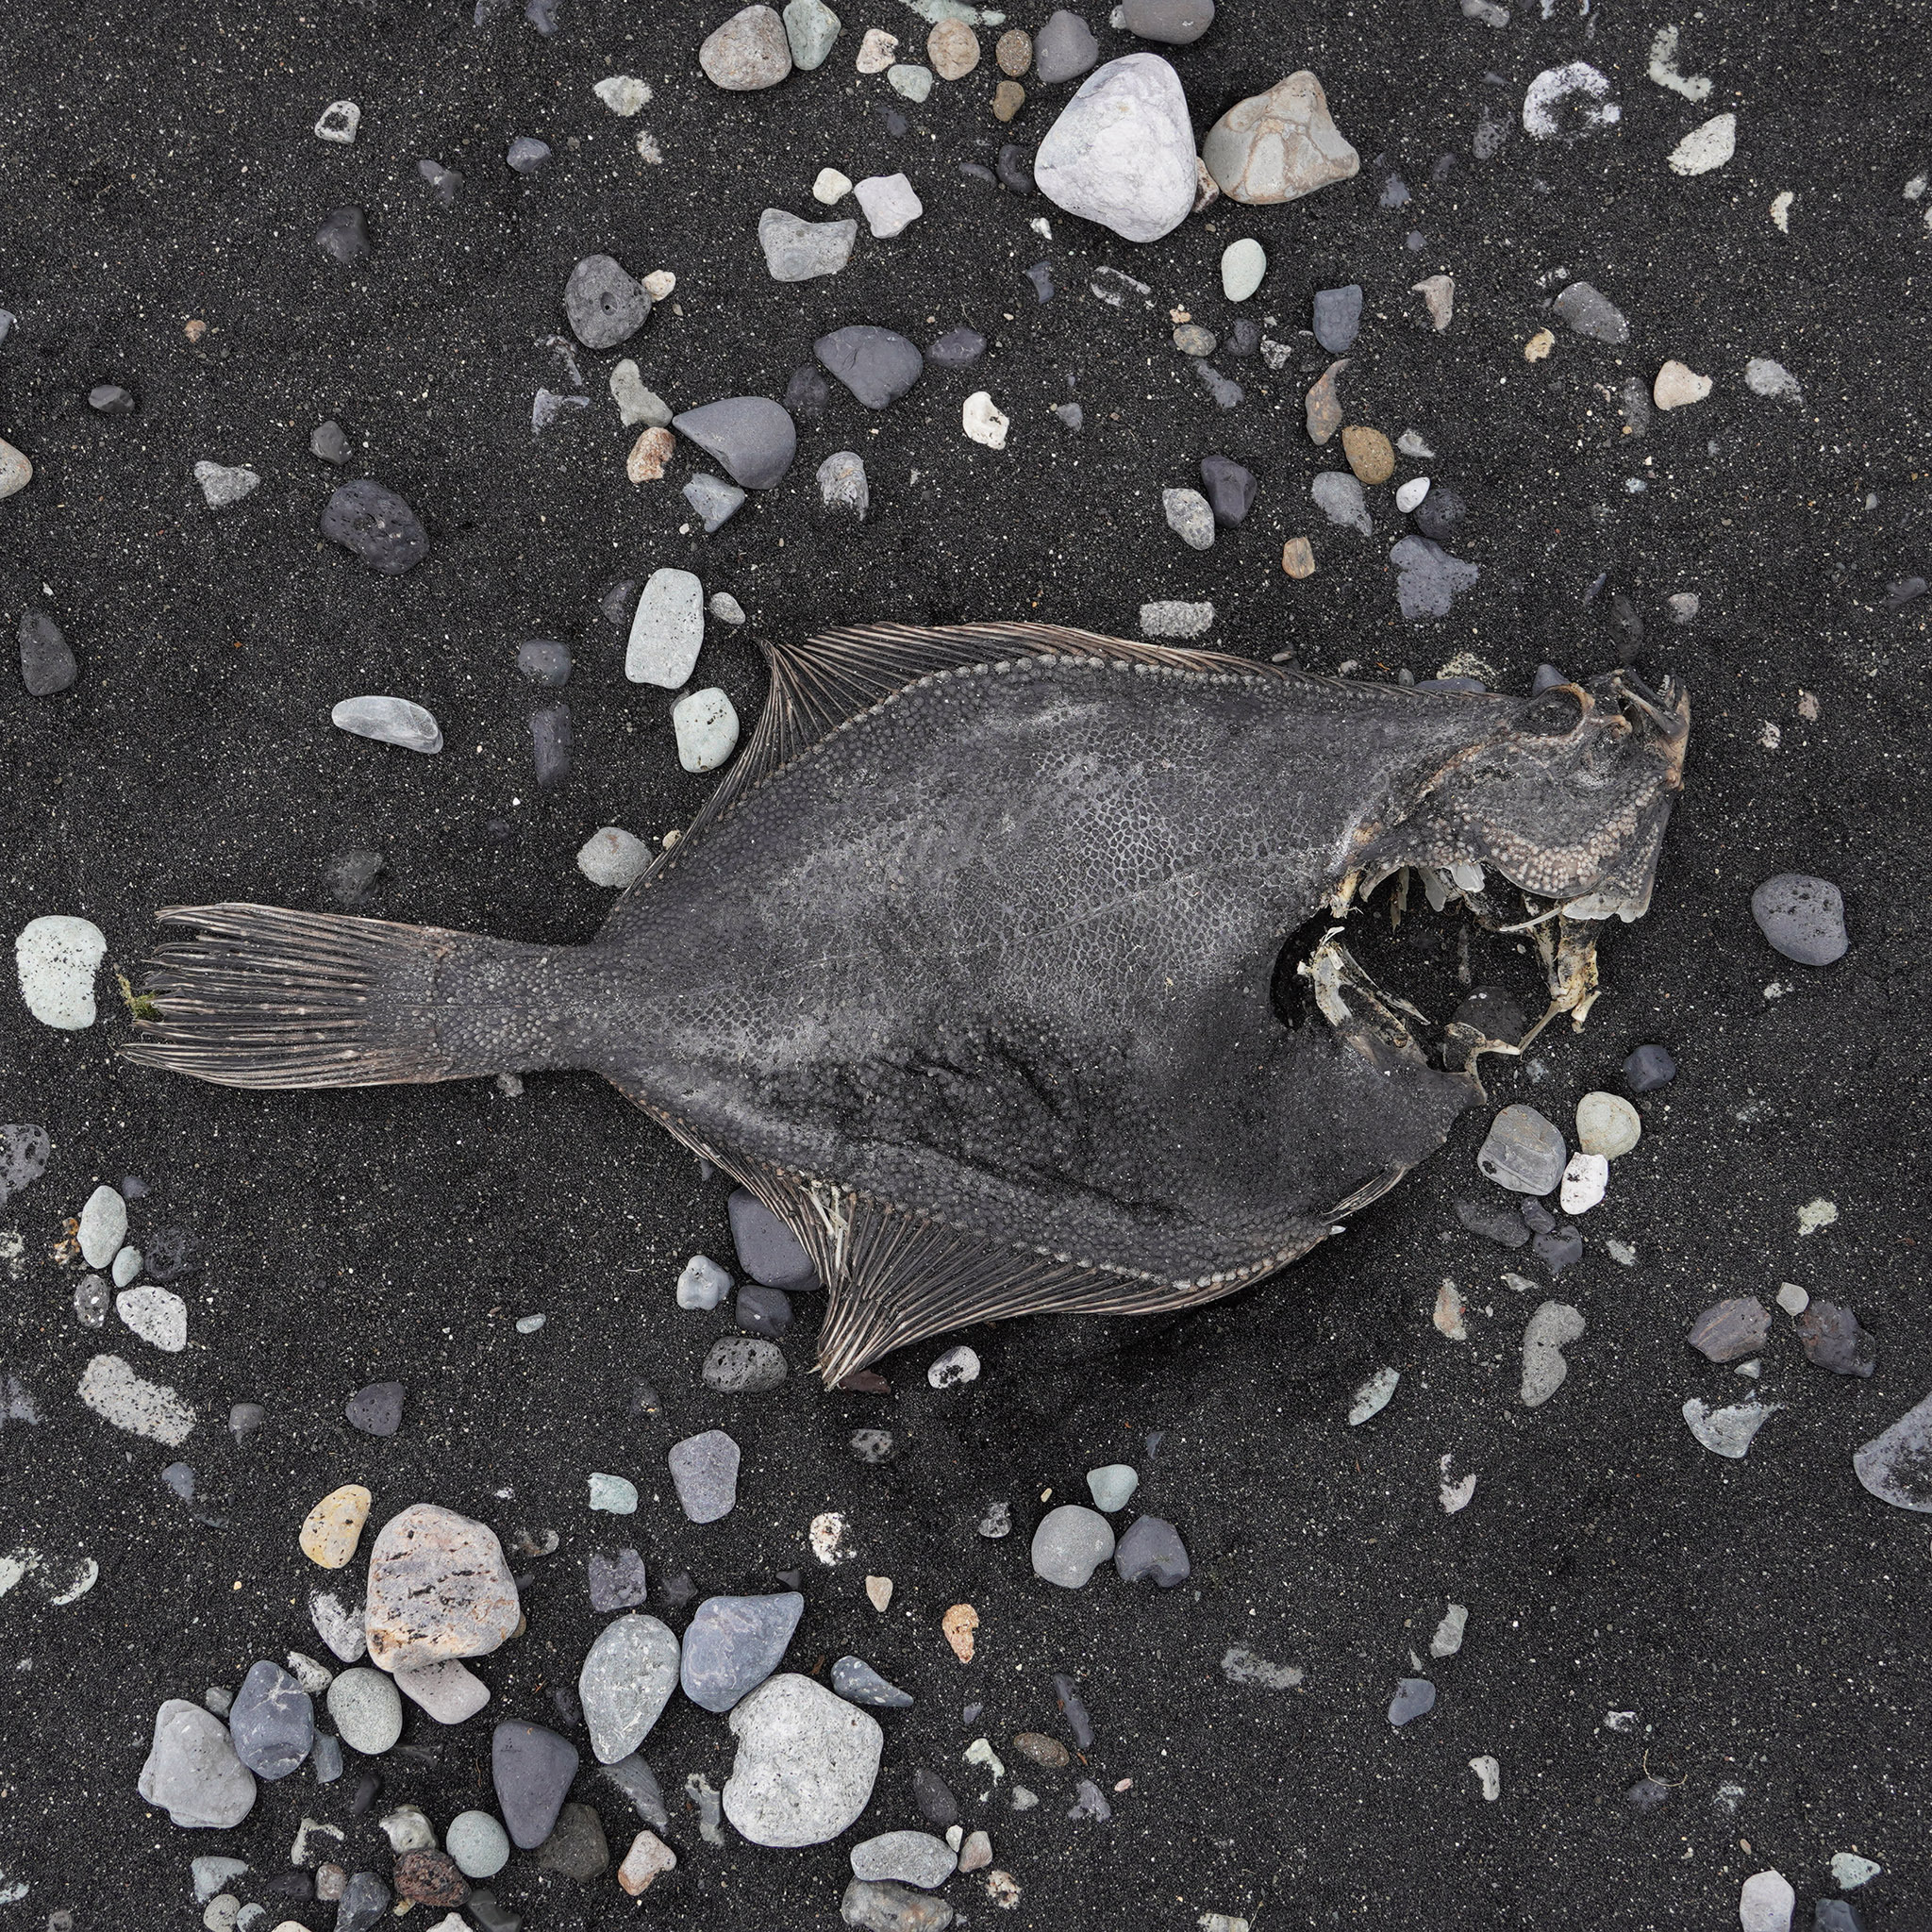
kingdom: Animalia
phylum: Chordata
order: Pleuronectiformes
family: Pleuronectidae
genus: Platichthys
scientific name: Platichthys flesus
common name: European flounder
